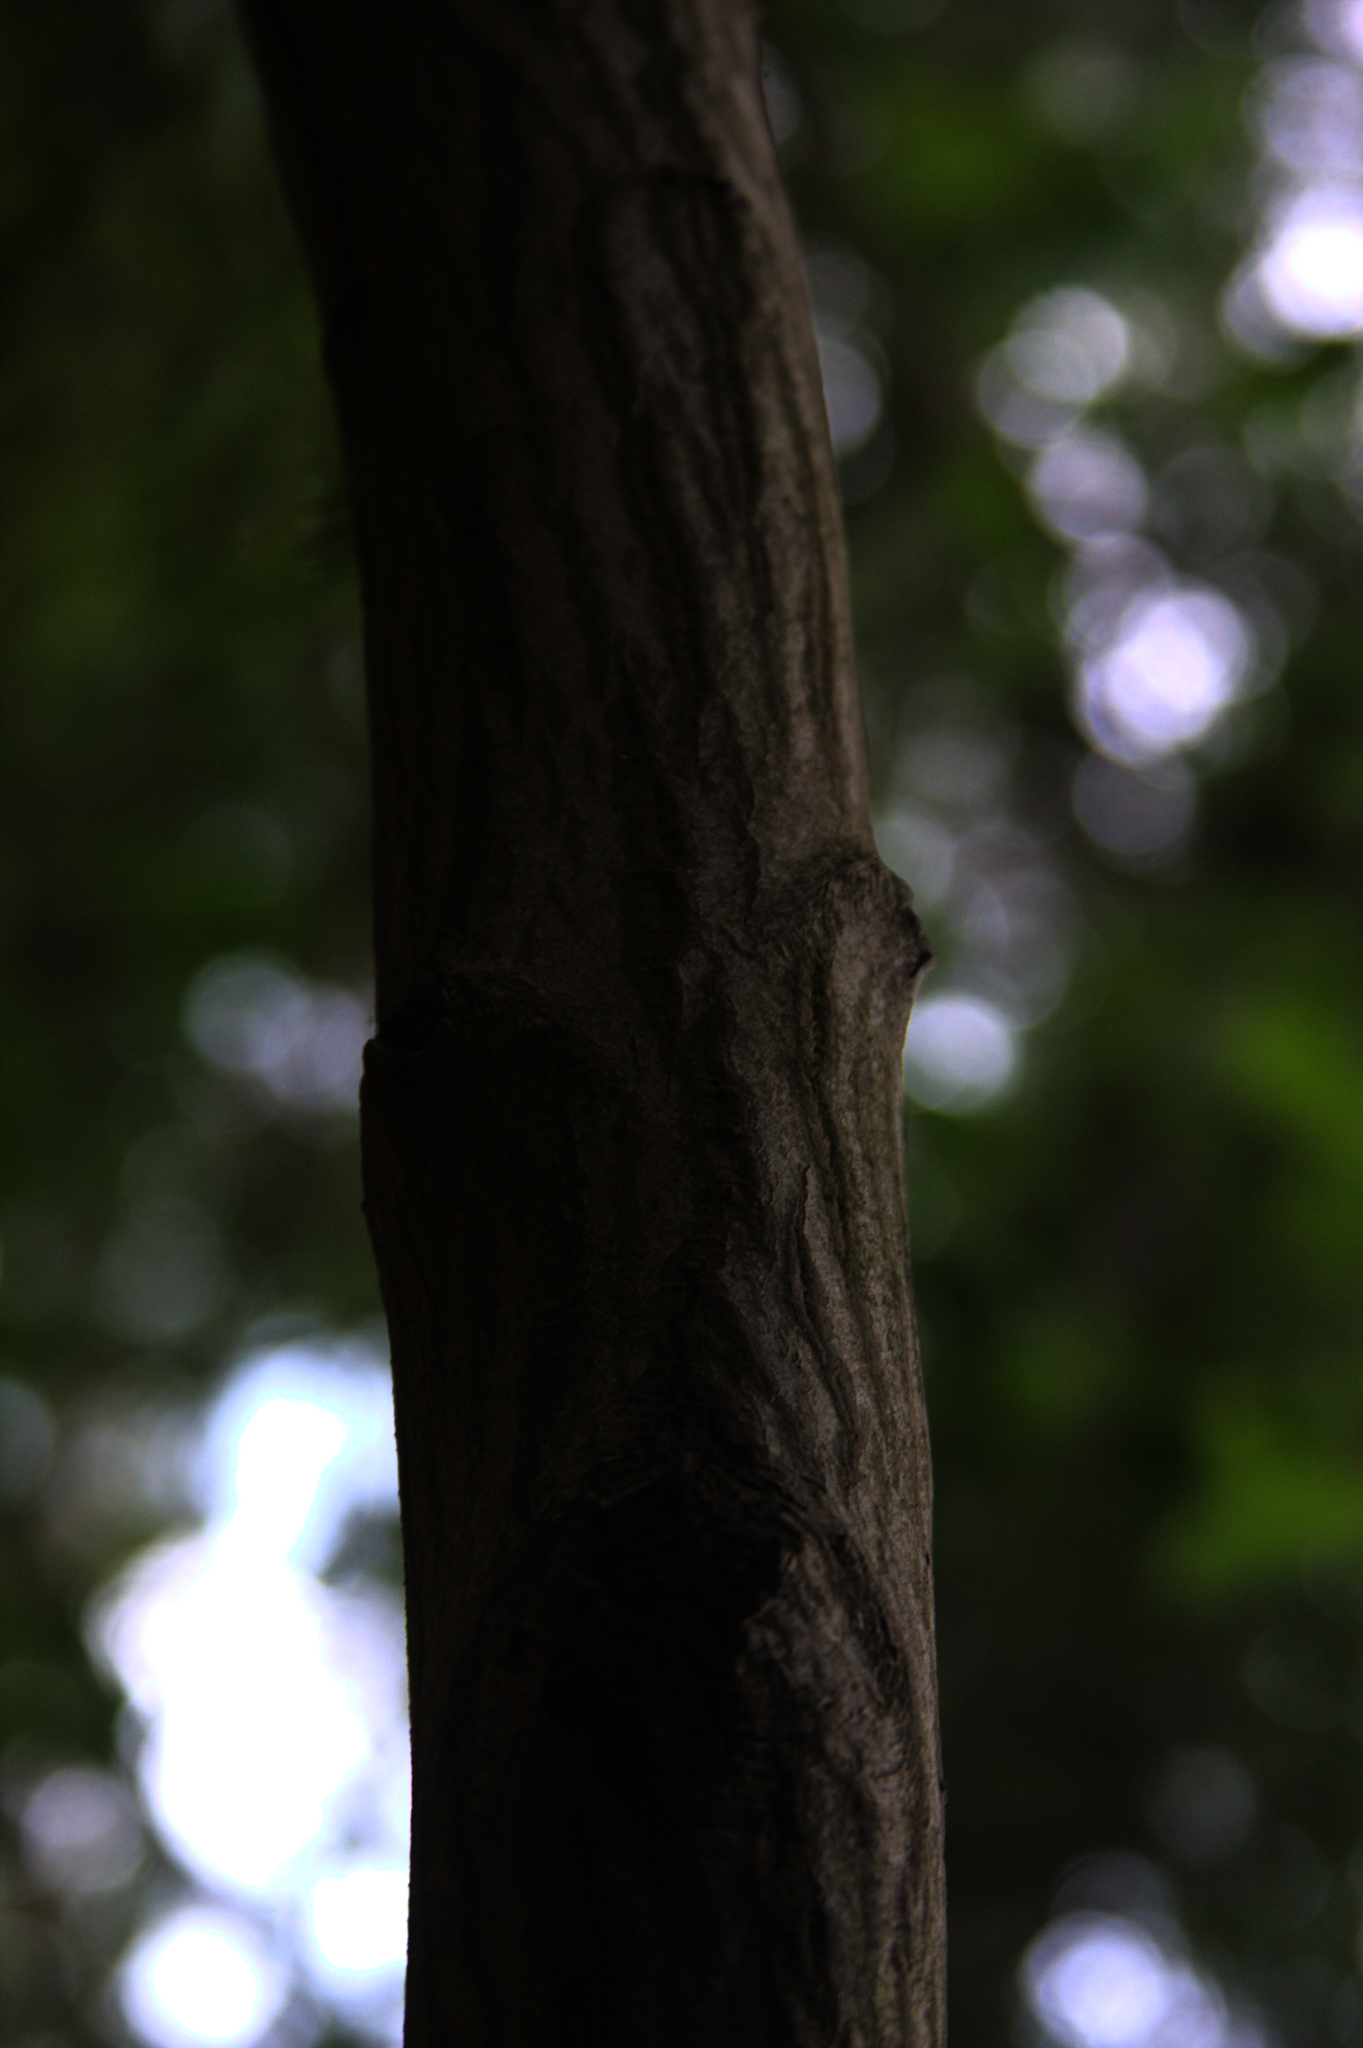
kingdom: Plantae
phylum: Tracheophyta
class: Magnoliopsida
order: Fagales
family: Betulaceae
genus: Carpinus
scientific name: Carpinus caroliniana
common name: American hornbeam
